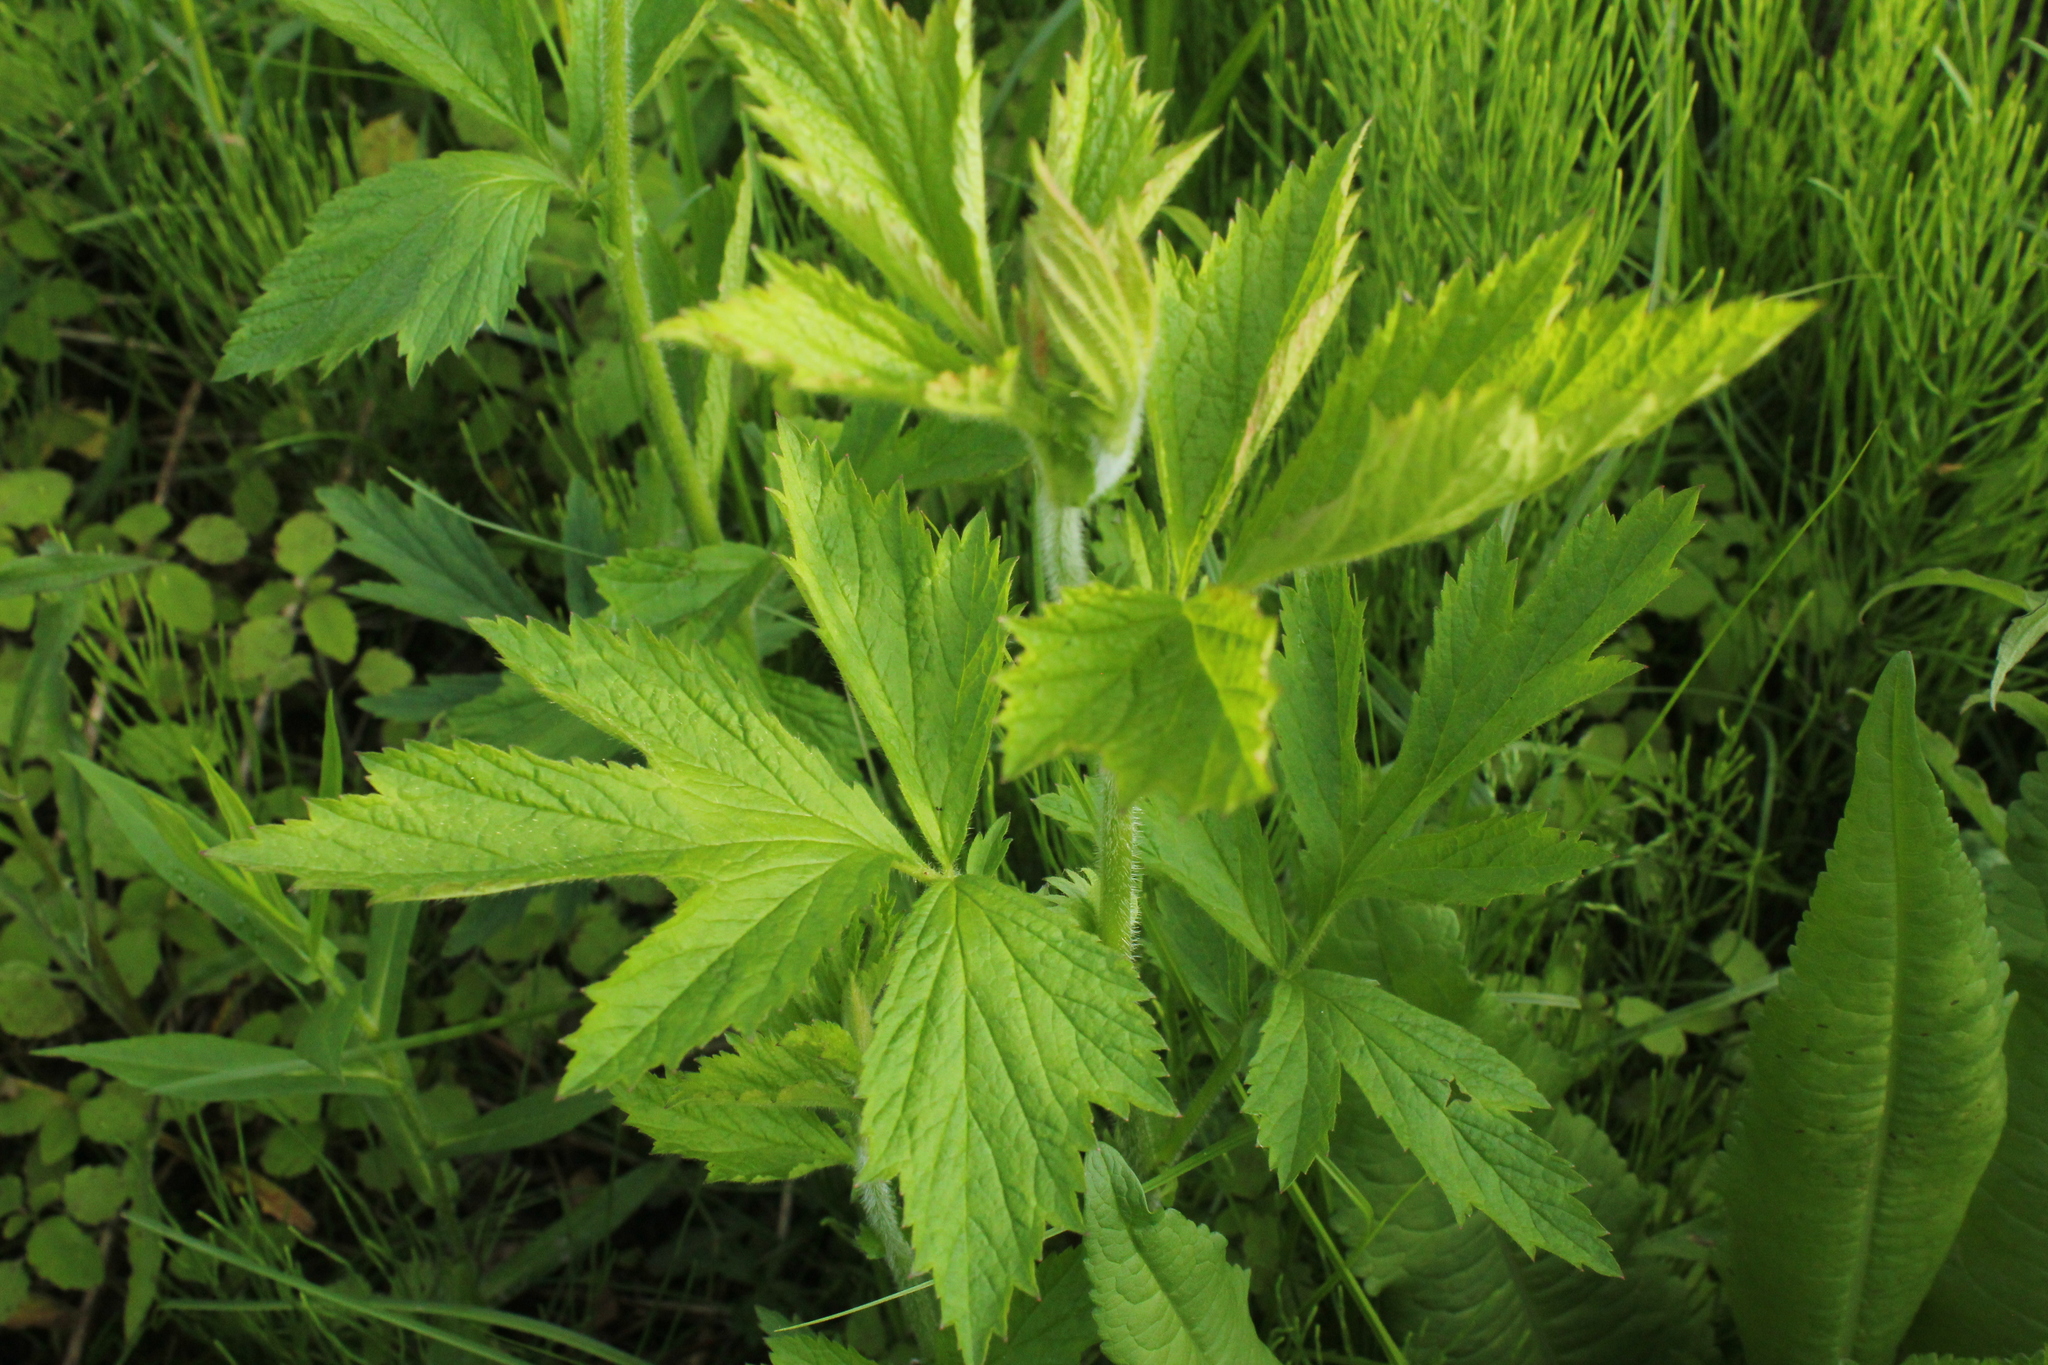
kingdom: Plantae
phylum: Tracheophyta
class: Magnoliopsida
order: Rosales
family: Rosaceae
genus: Geum
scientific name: Geum aleppicum
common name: Yellow avens
